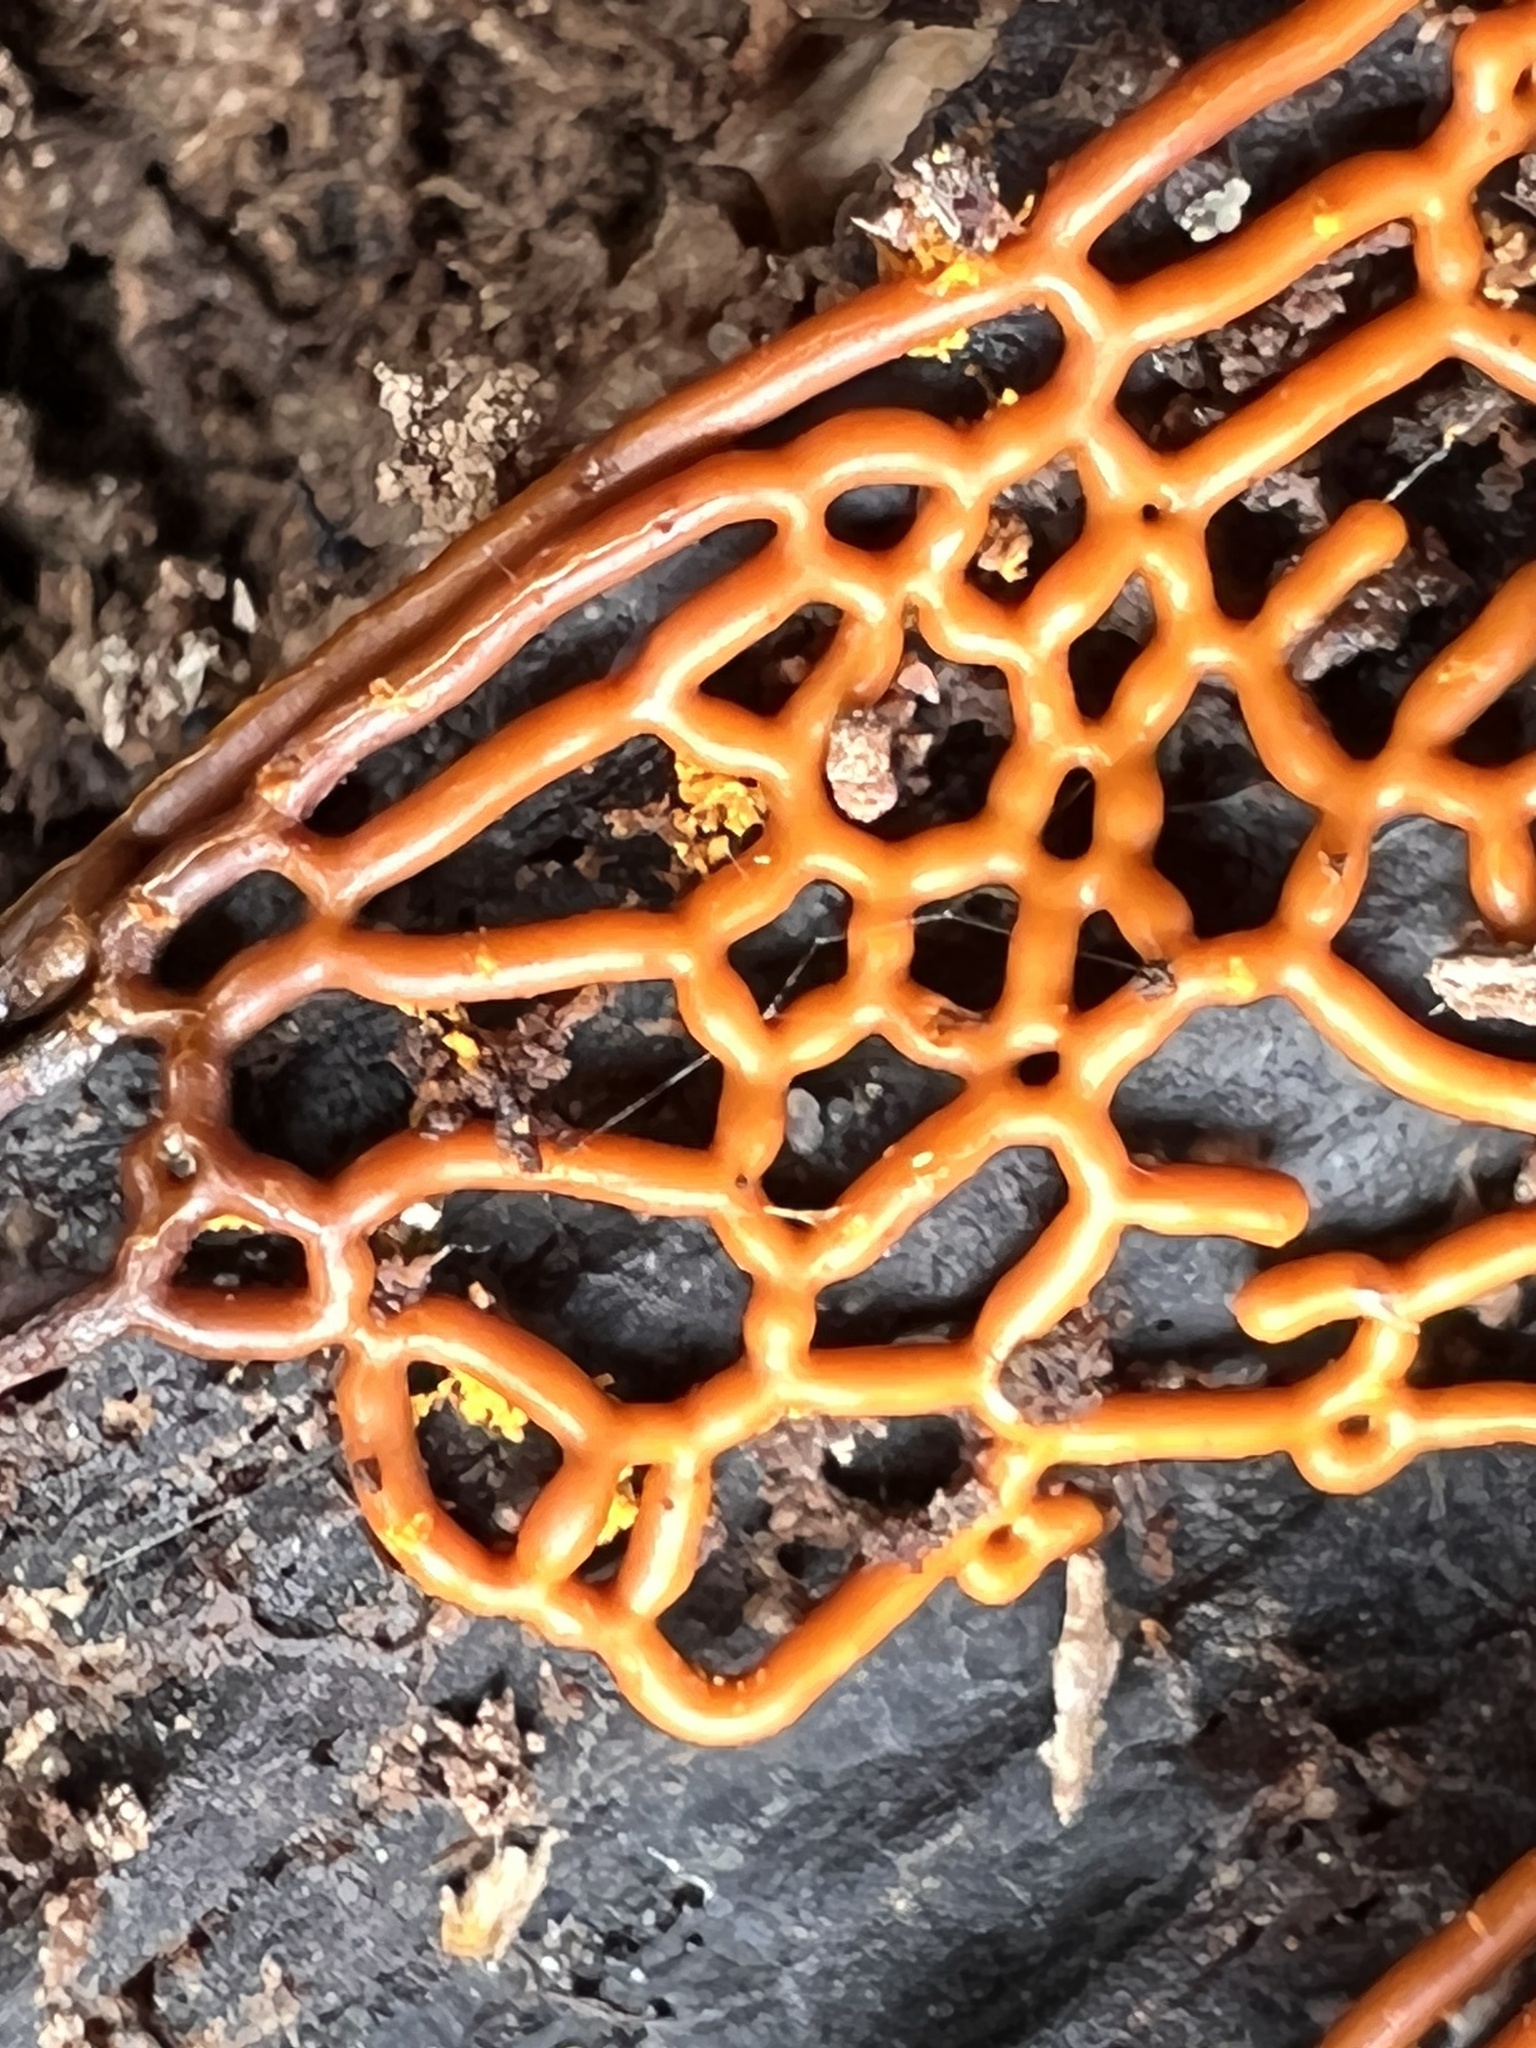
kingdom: Protozoa
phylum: Mycetozoa
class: Myxomycetes
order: Trichiales
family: Arcyriaceae
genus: Hemitrichia
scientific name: Hemitrichia serpula
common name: Pretzel slime mold
